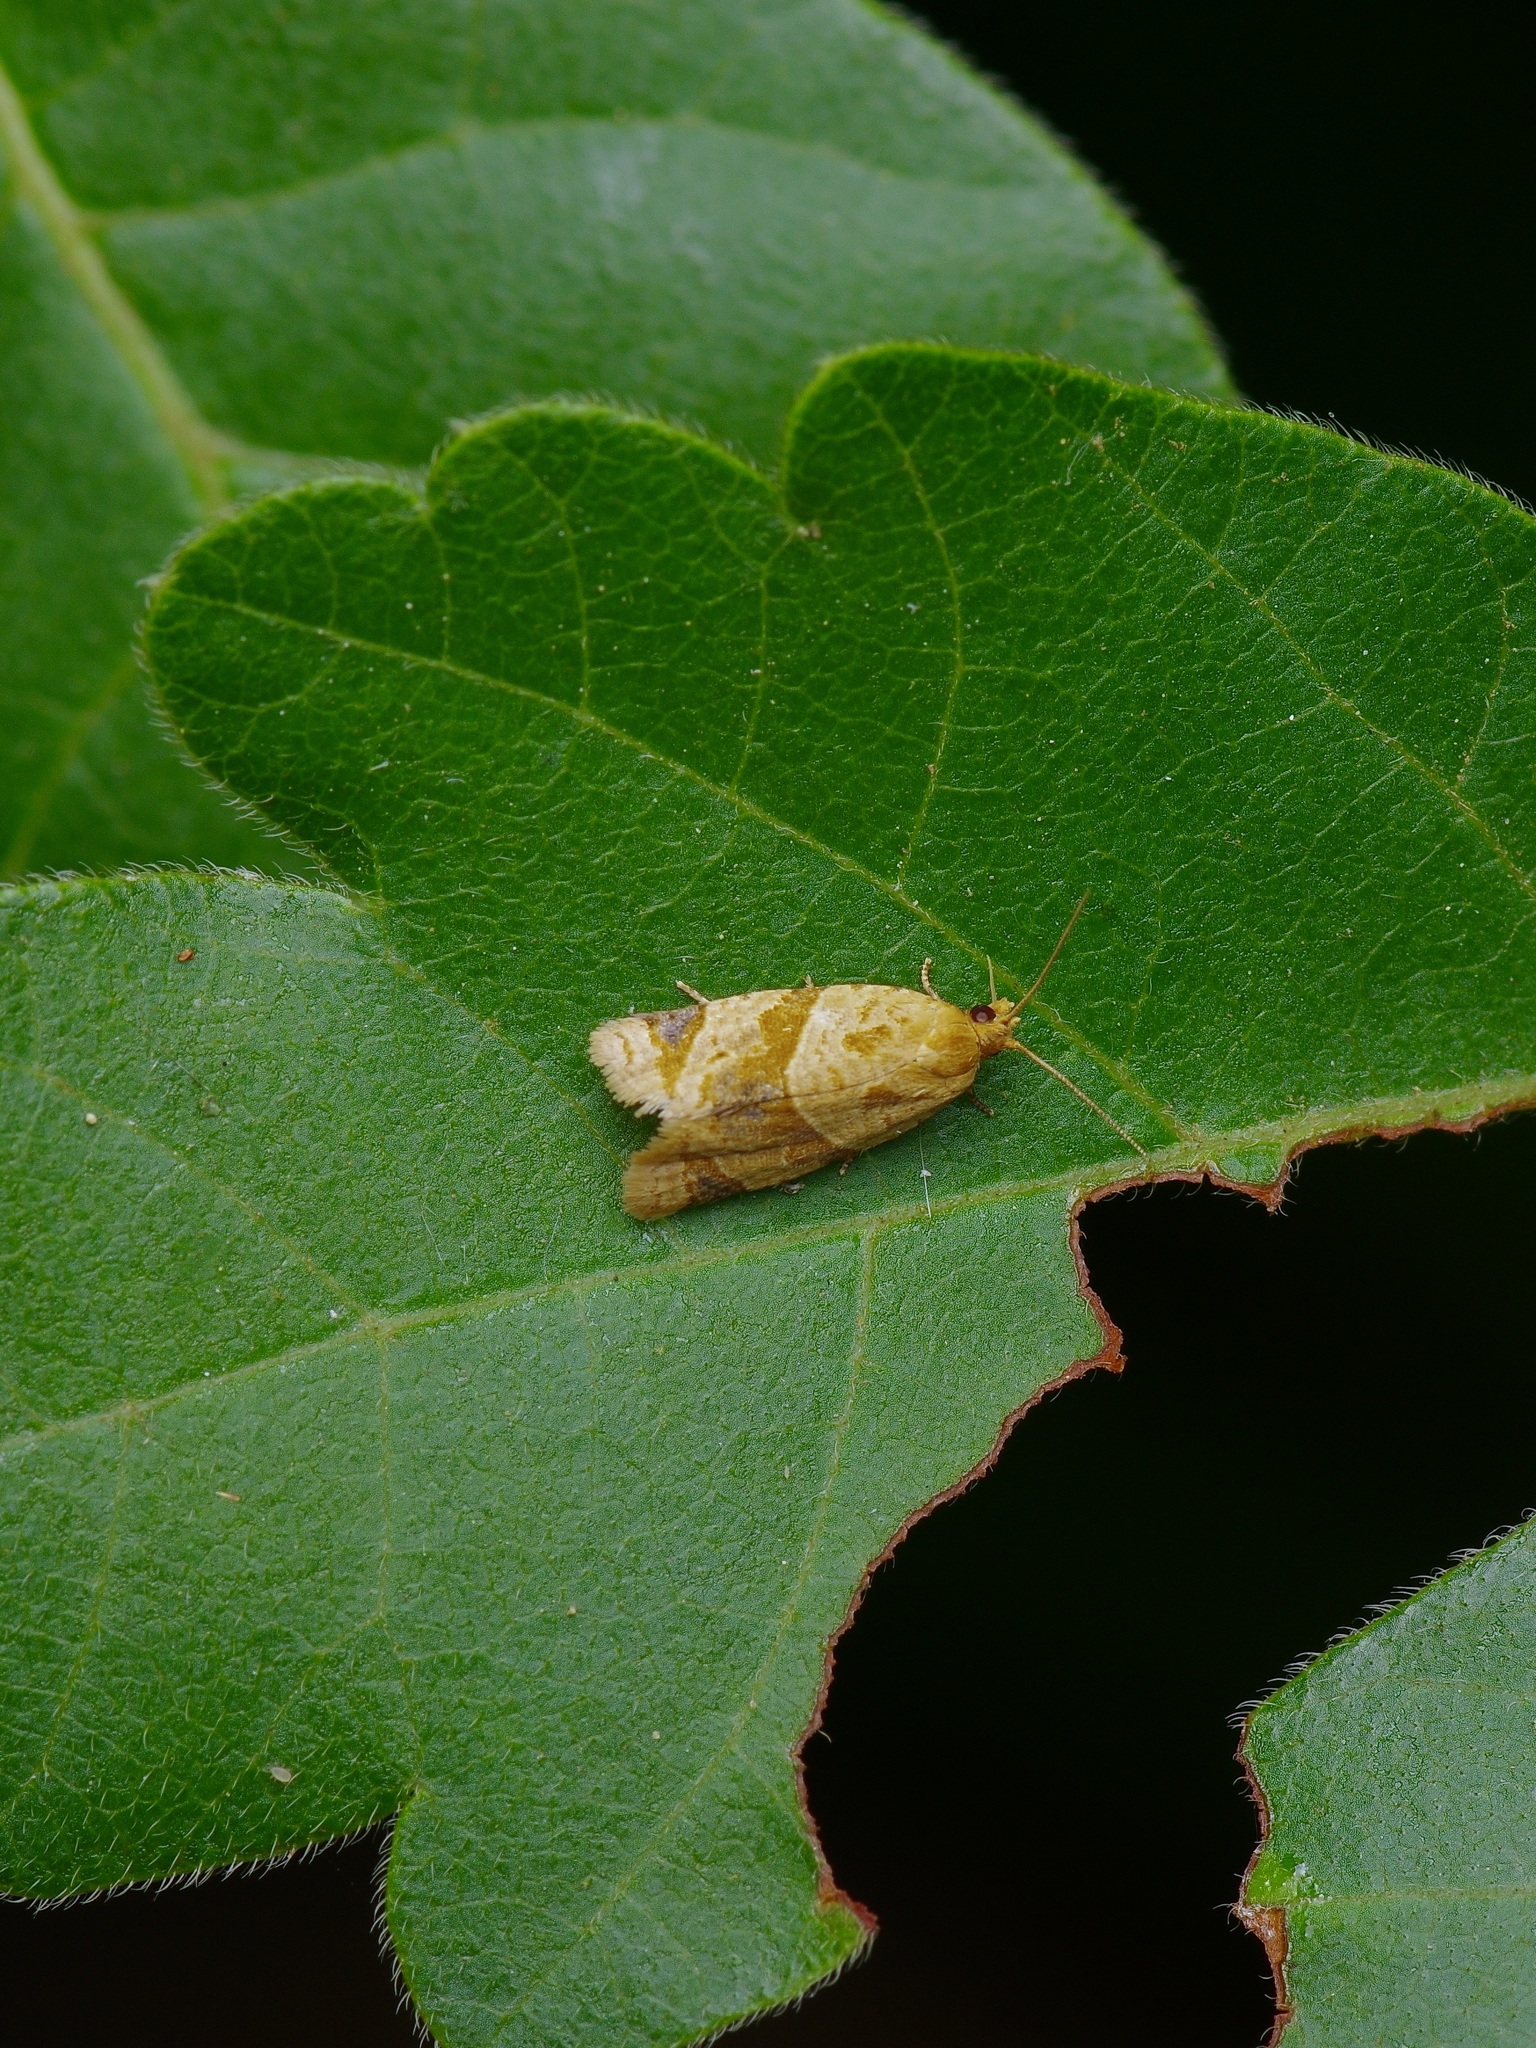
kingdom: Animalia
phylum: Arthropoda
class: Insecta
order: Lepidoptera
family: Tortricidae
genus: Clepsis
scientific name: Clepsis peritana
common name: Garden tortrix
